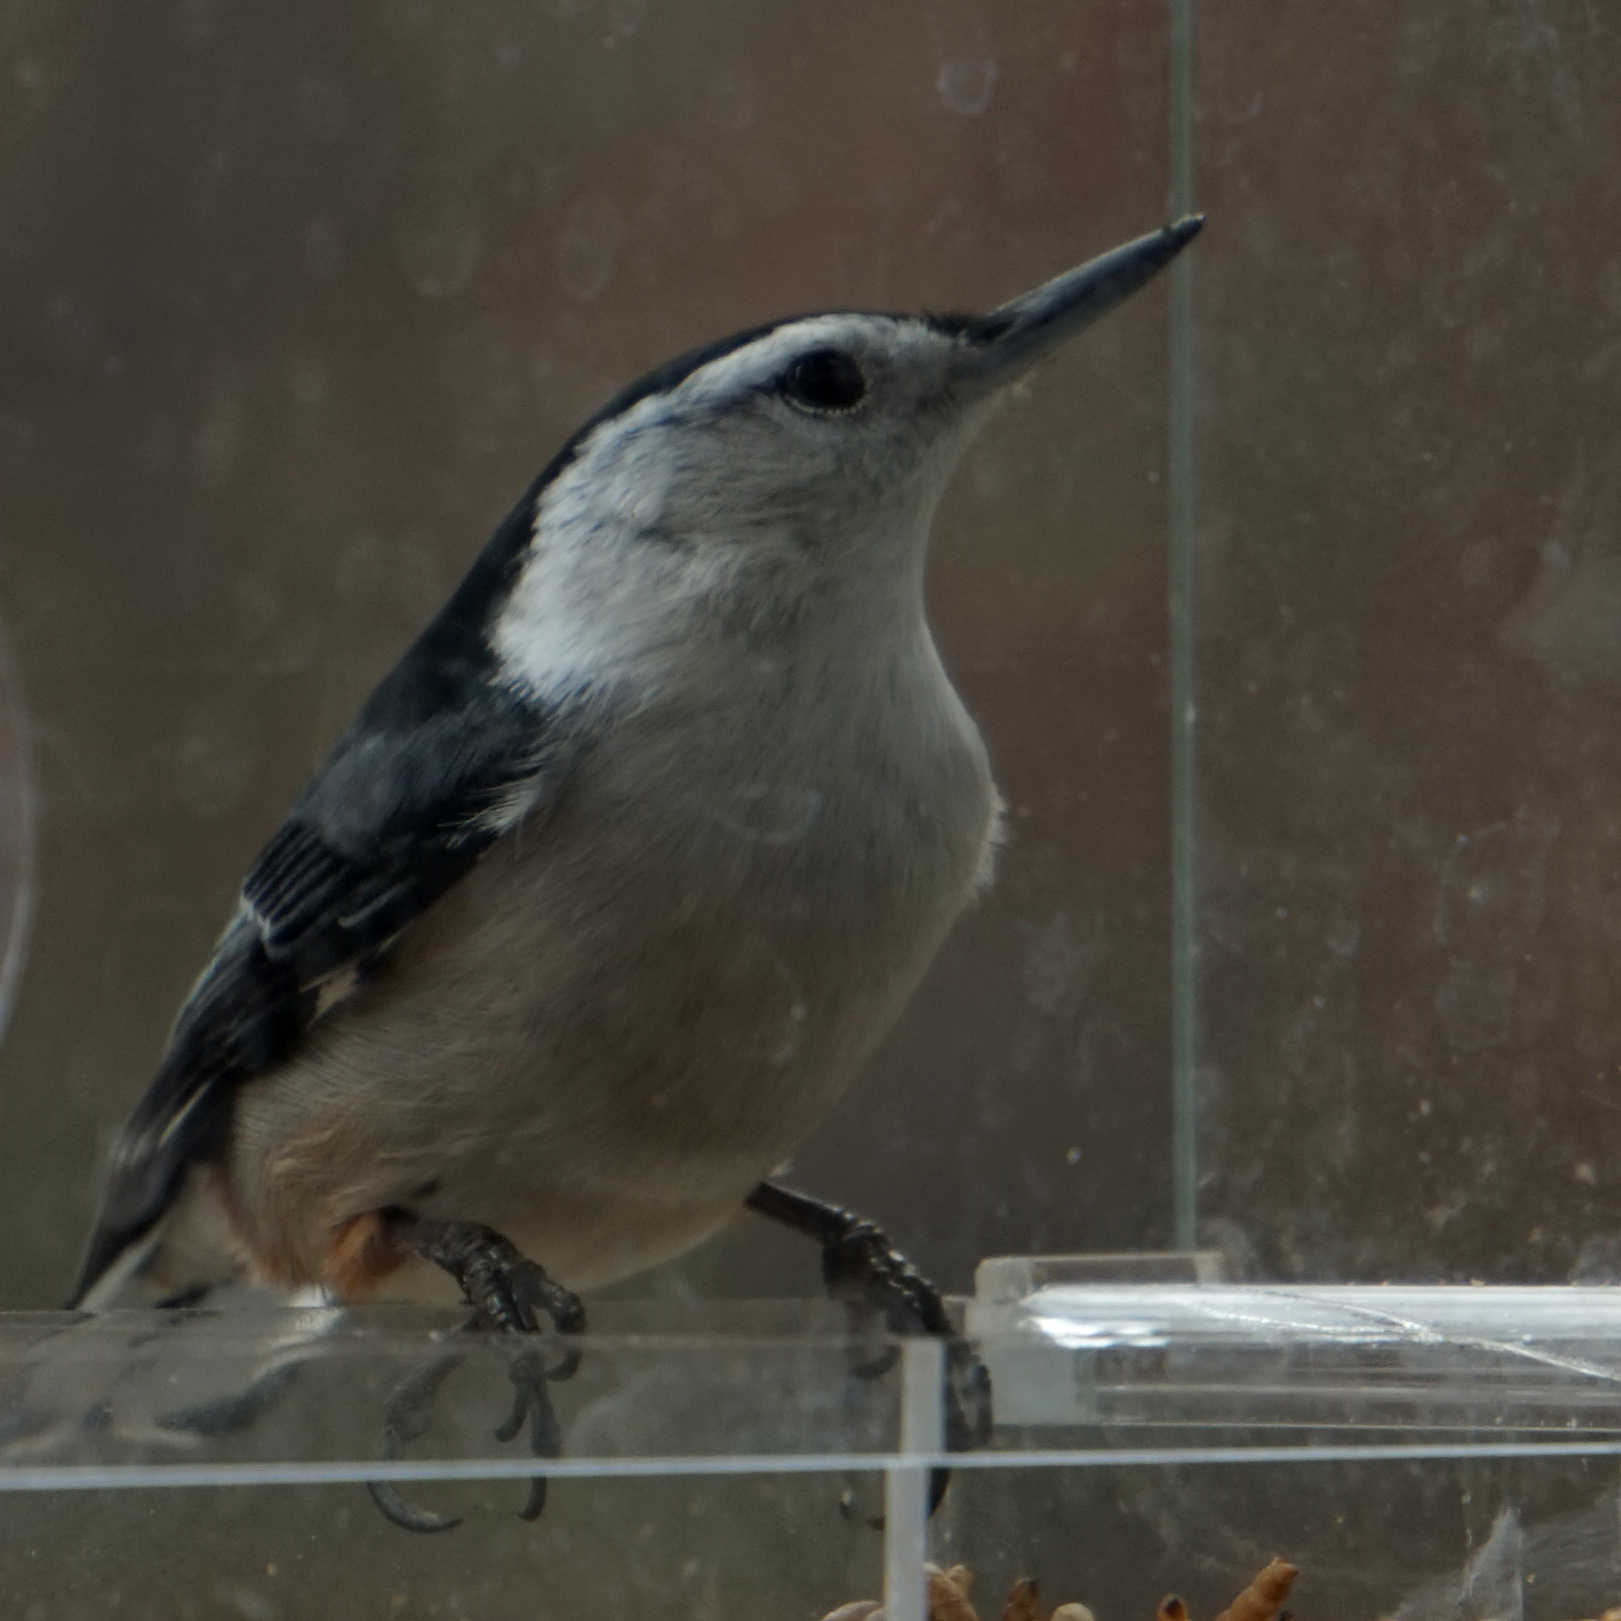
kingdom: Animalia
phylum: Chordata
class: Aves
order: Passeriformes
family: Sittidae
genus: Sitta
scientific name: Sitta carolinensis
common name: White-breasted nuthatch
